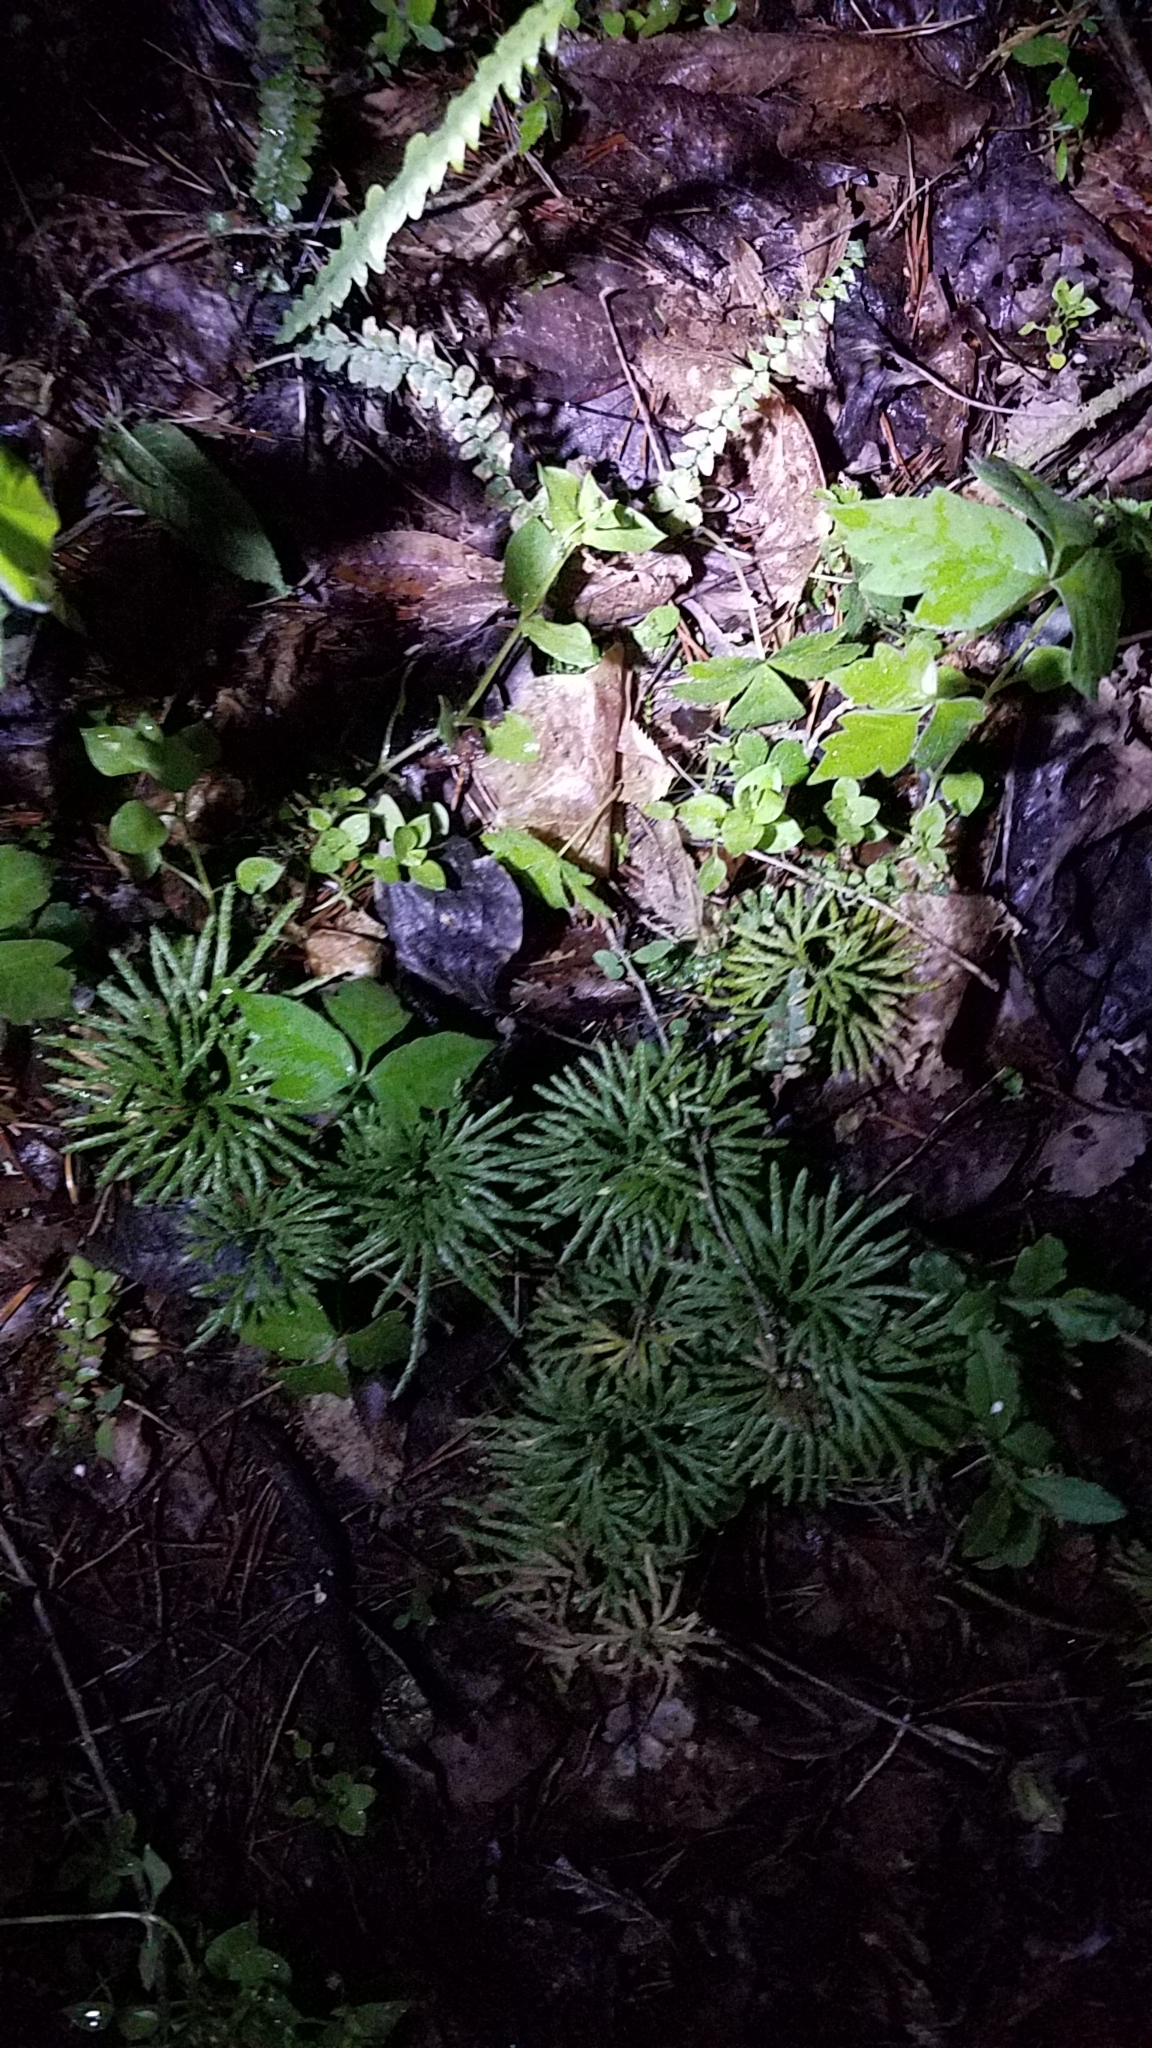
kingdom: Plantae
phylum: Tracheophyta
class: Lycopodiopsida
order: Lycopodiales
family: Lycopodiaceae
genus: Diphasiastrum
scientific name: Diphasiastrum digitatum
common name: Southern running-pine
